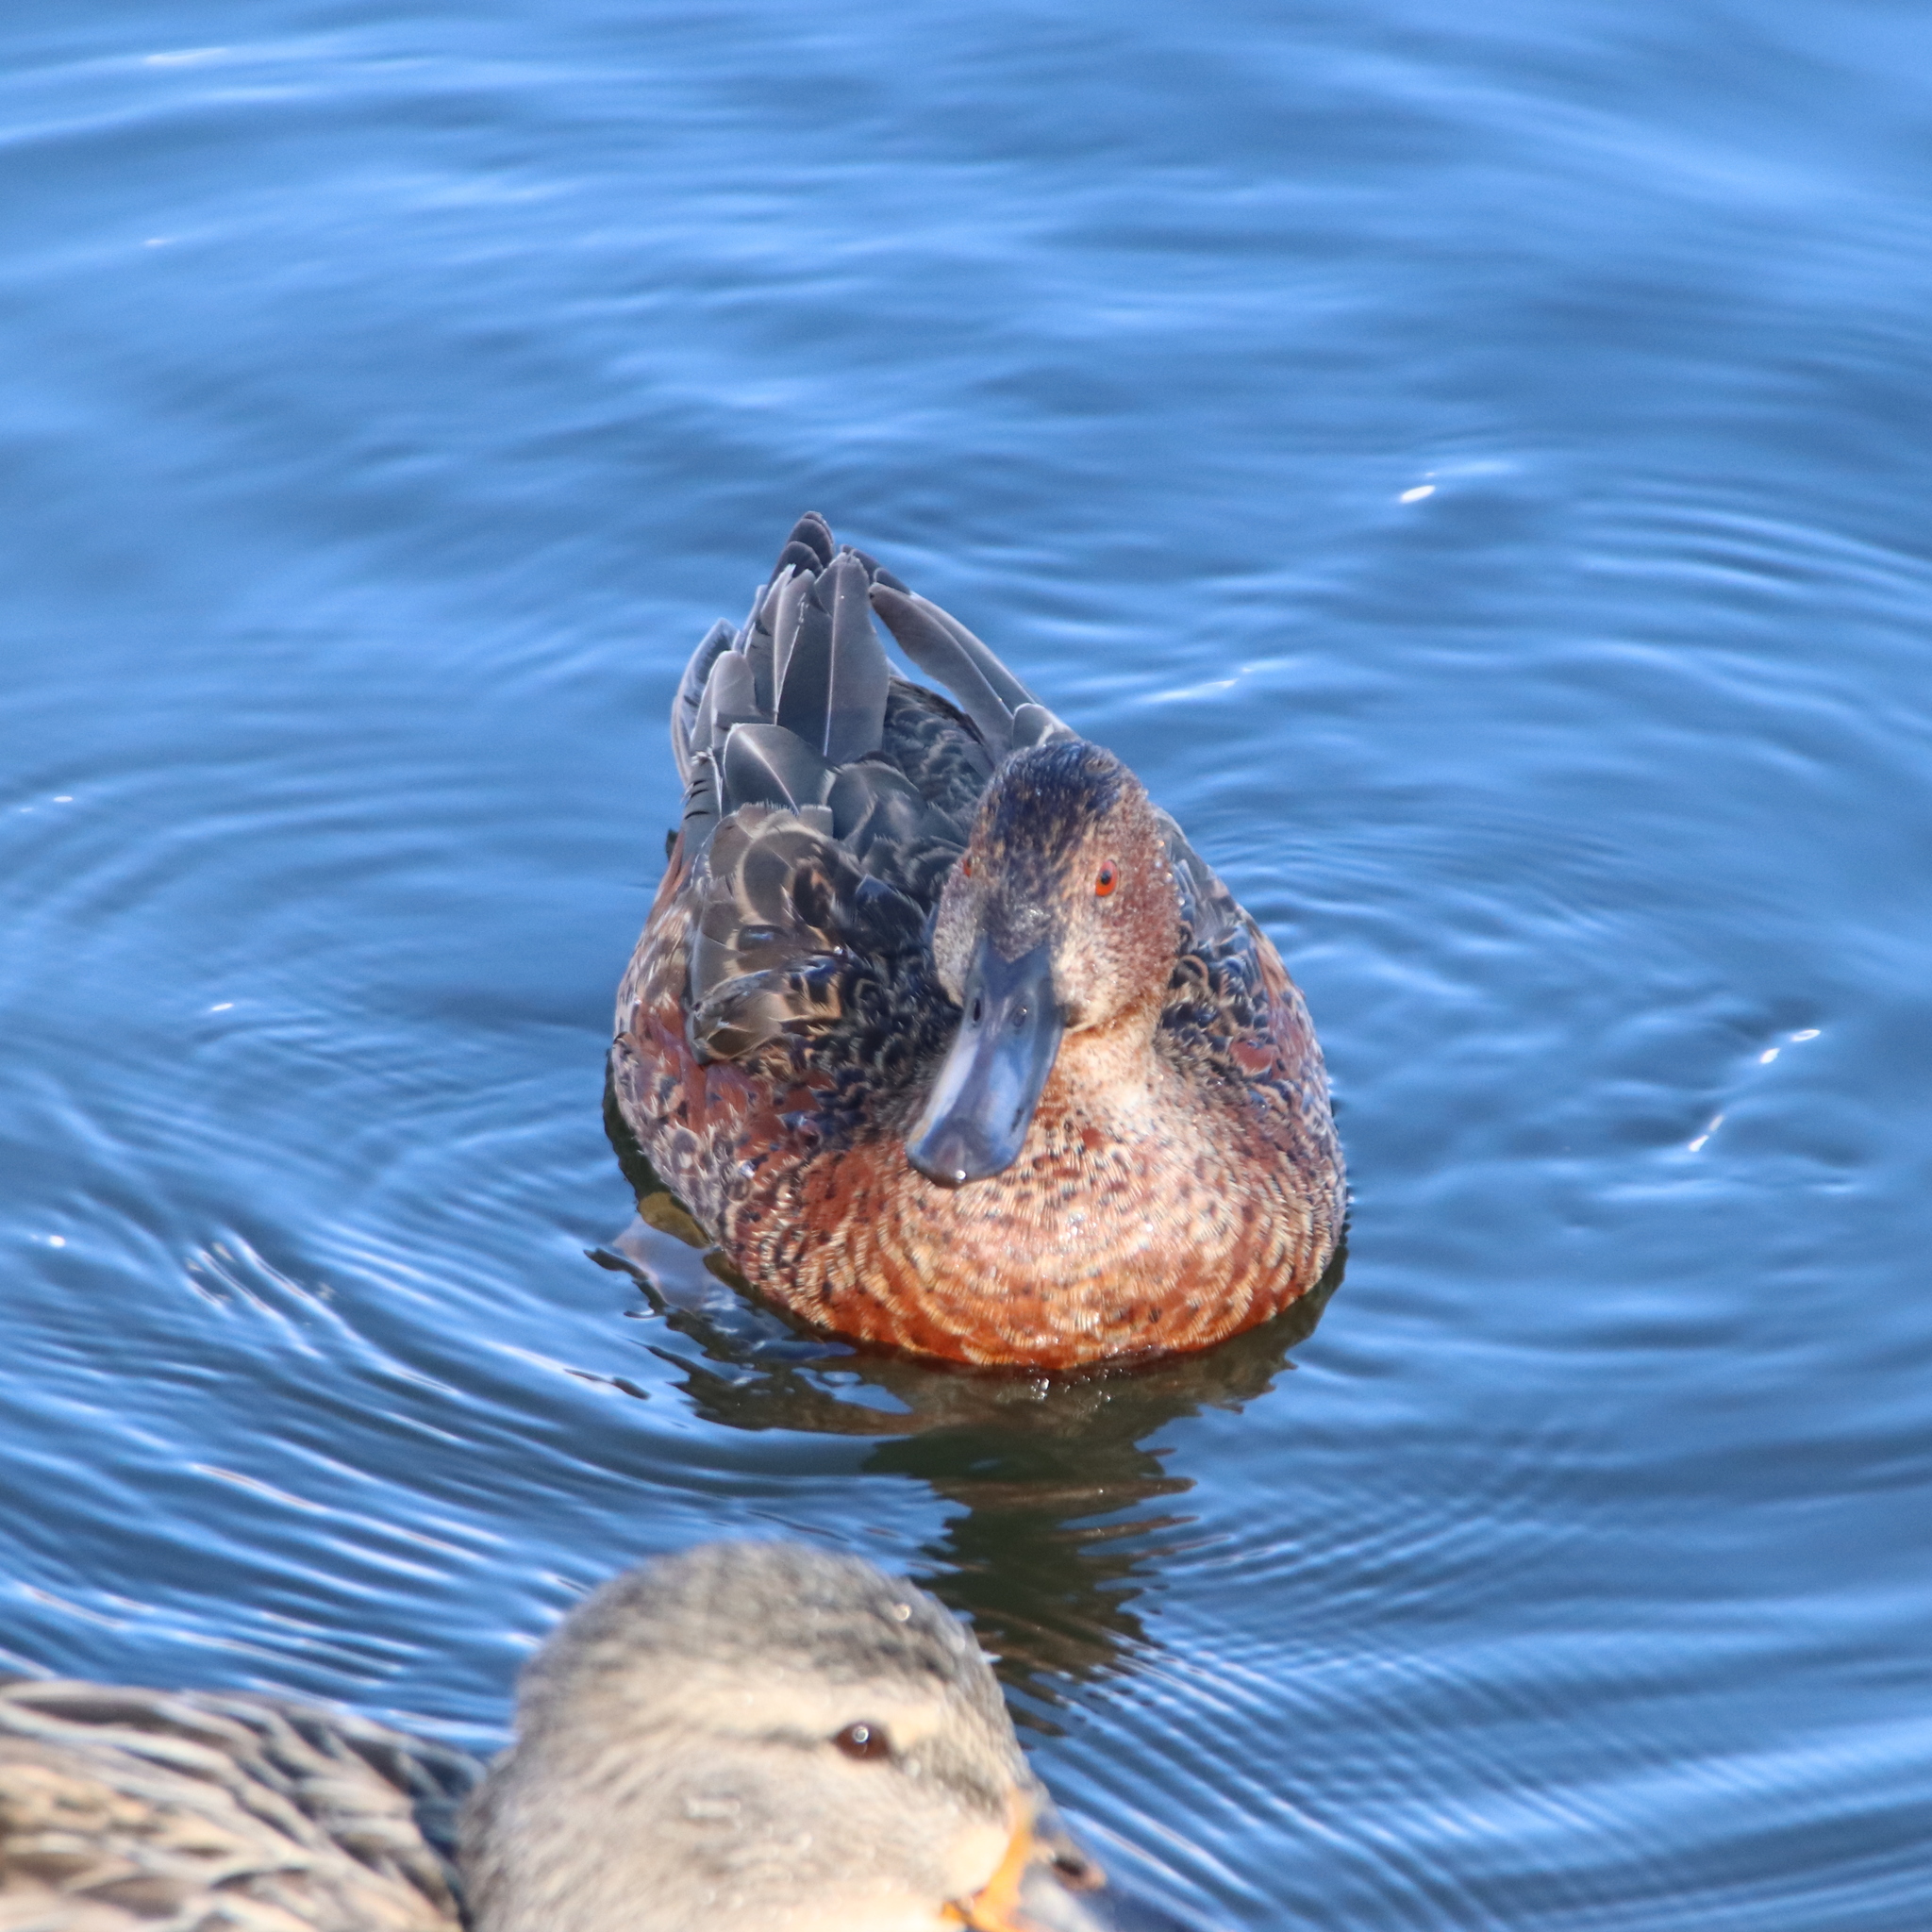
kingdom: Animalia
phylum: Chordata
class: Aves
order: Anseriformes
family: Anatidae
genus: Spatula
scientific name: Spatula cyanoptera
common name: Cinnamon teal
